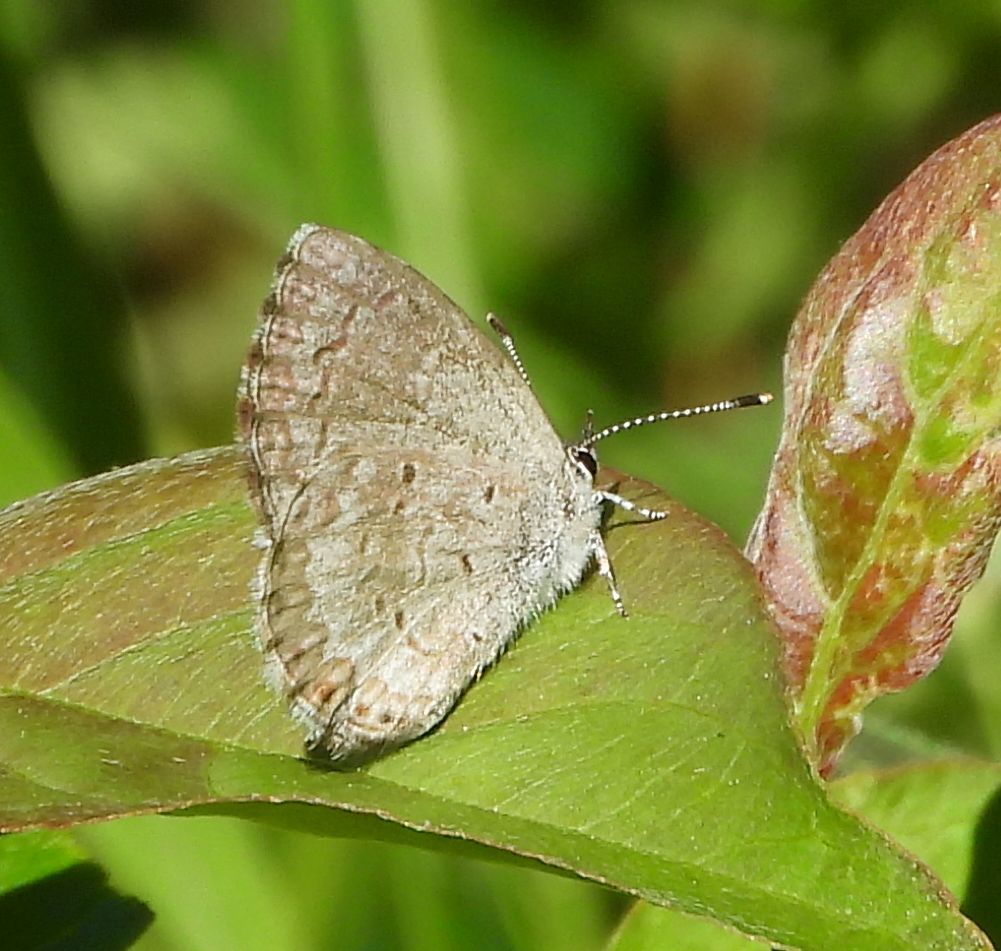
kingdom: Animalia
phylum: Arthropoda
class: Insecta
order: Lepidoptera
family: Lycaenidae
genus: Celastrina
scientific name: Celastrina lucia
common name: Lucia azure
